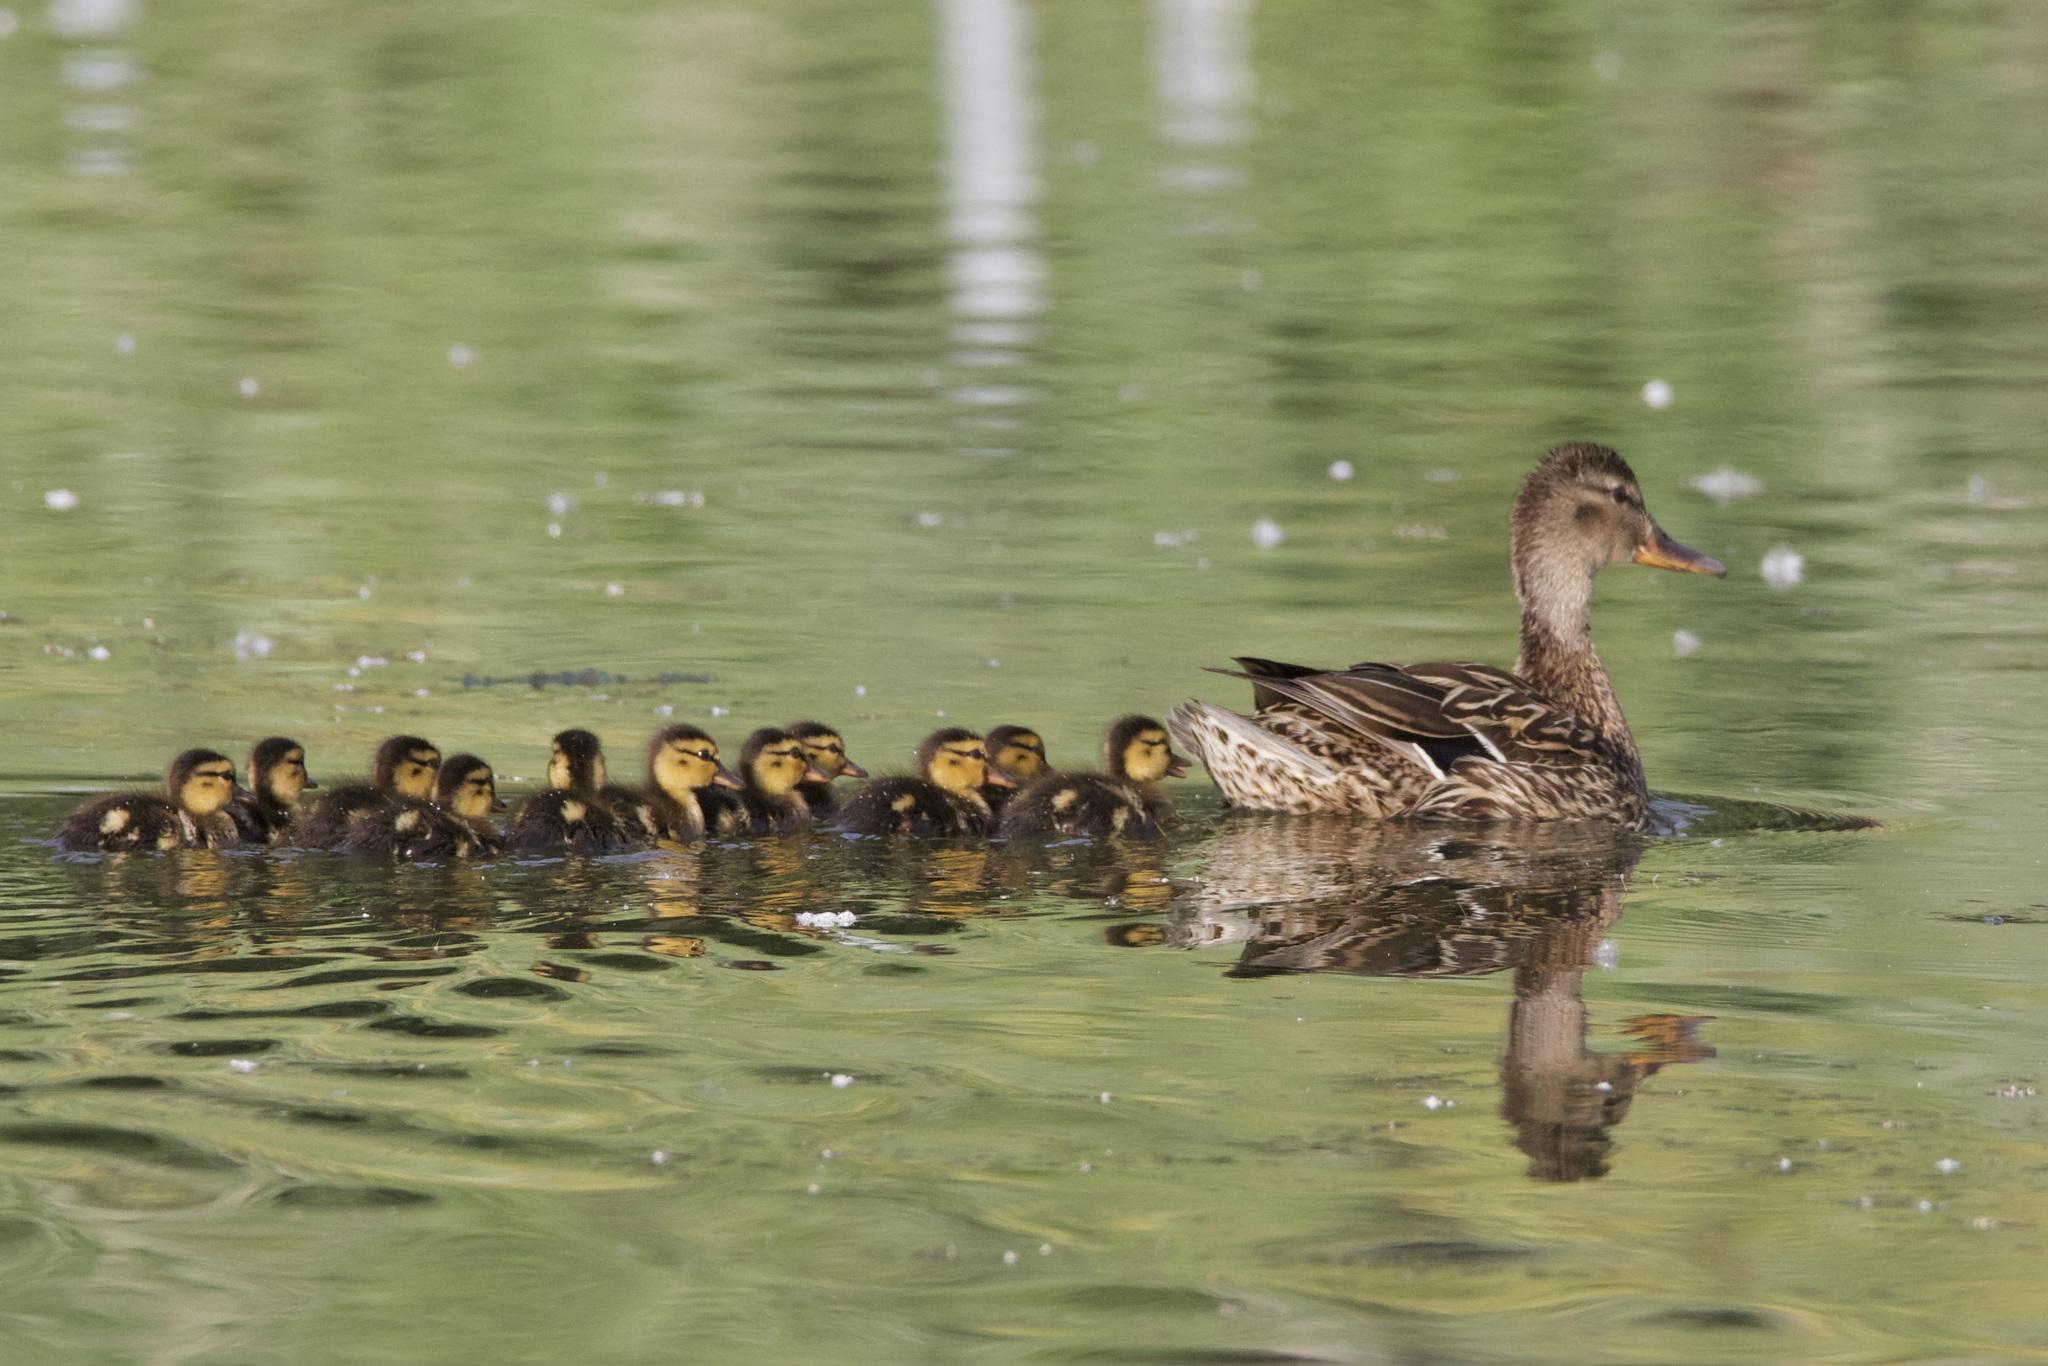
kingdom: Animalia
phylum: Chordata
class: Aves
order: Anseriformes
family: Anatidae
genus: Anas
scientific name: Anas platyrhynchos
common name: Mallard
